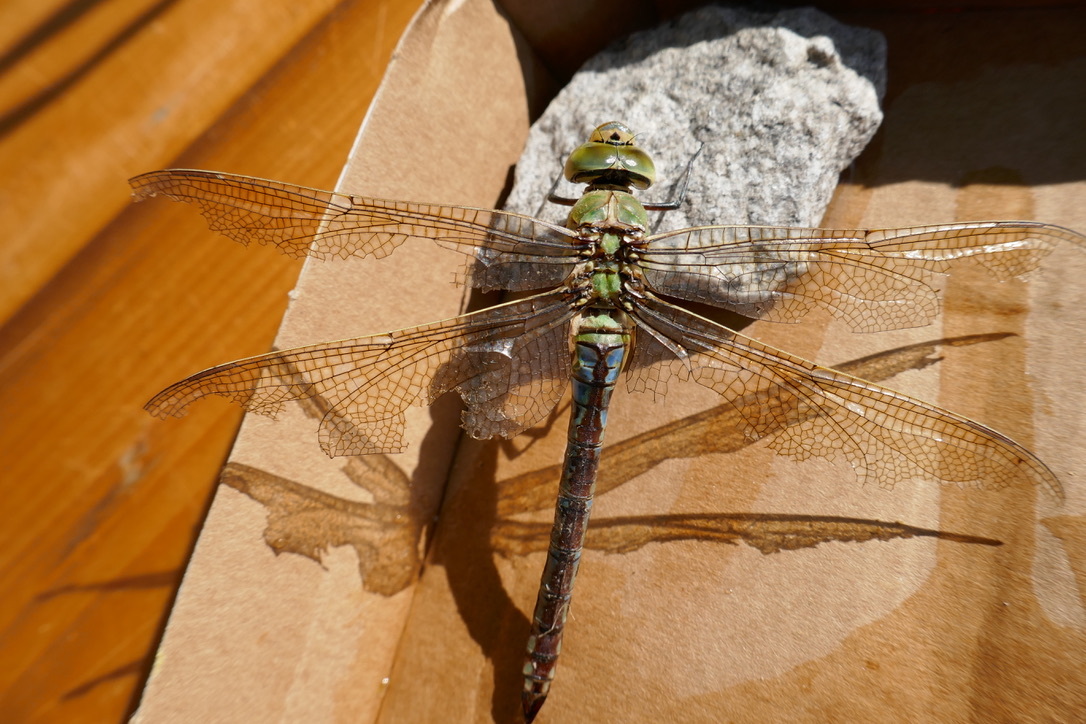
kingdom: Animalia
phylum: Arthropoda
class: Insecta
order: Odonata
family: Aeshnidae
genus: Anax
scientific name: Anax imperator
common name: Emperor dragonfly
